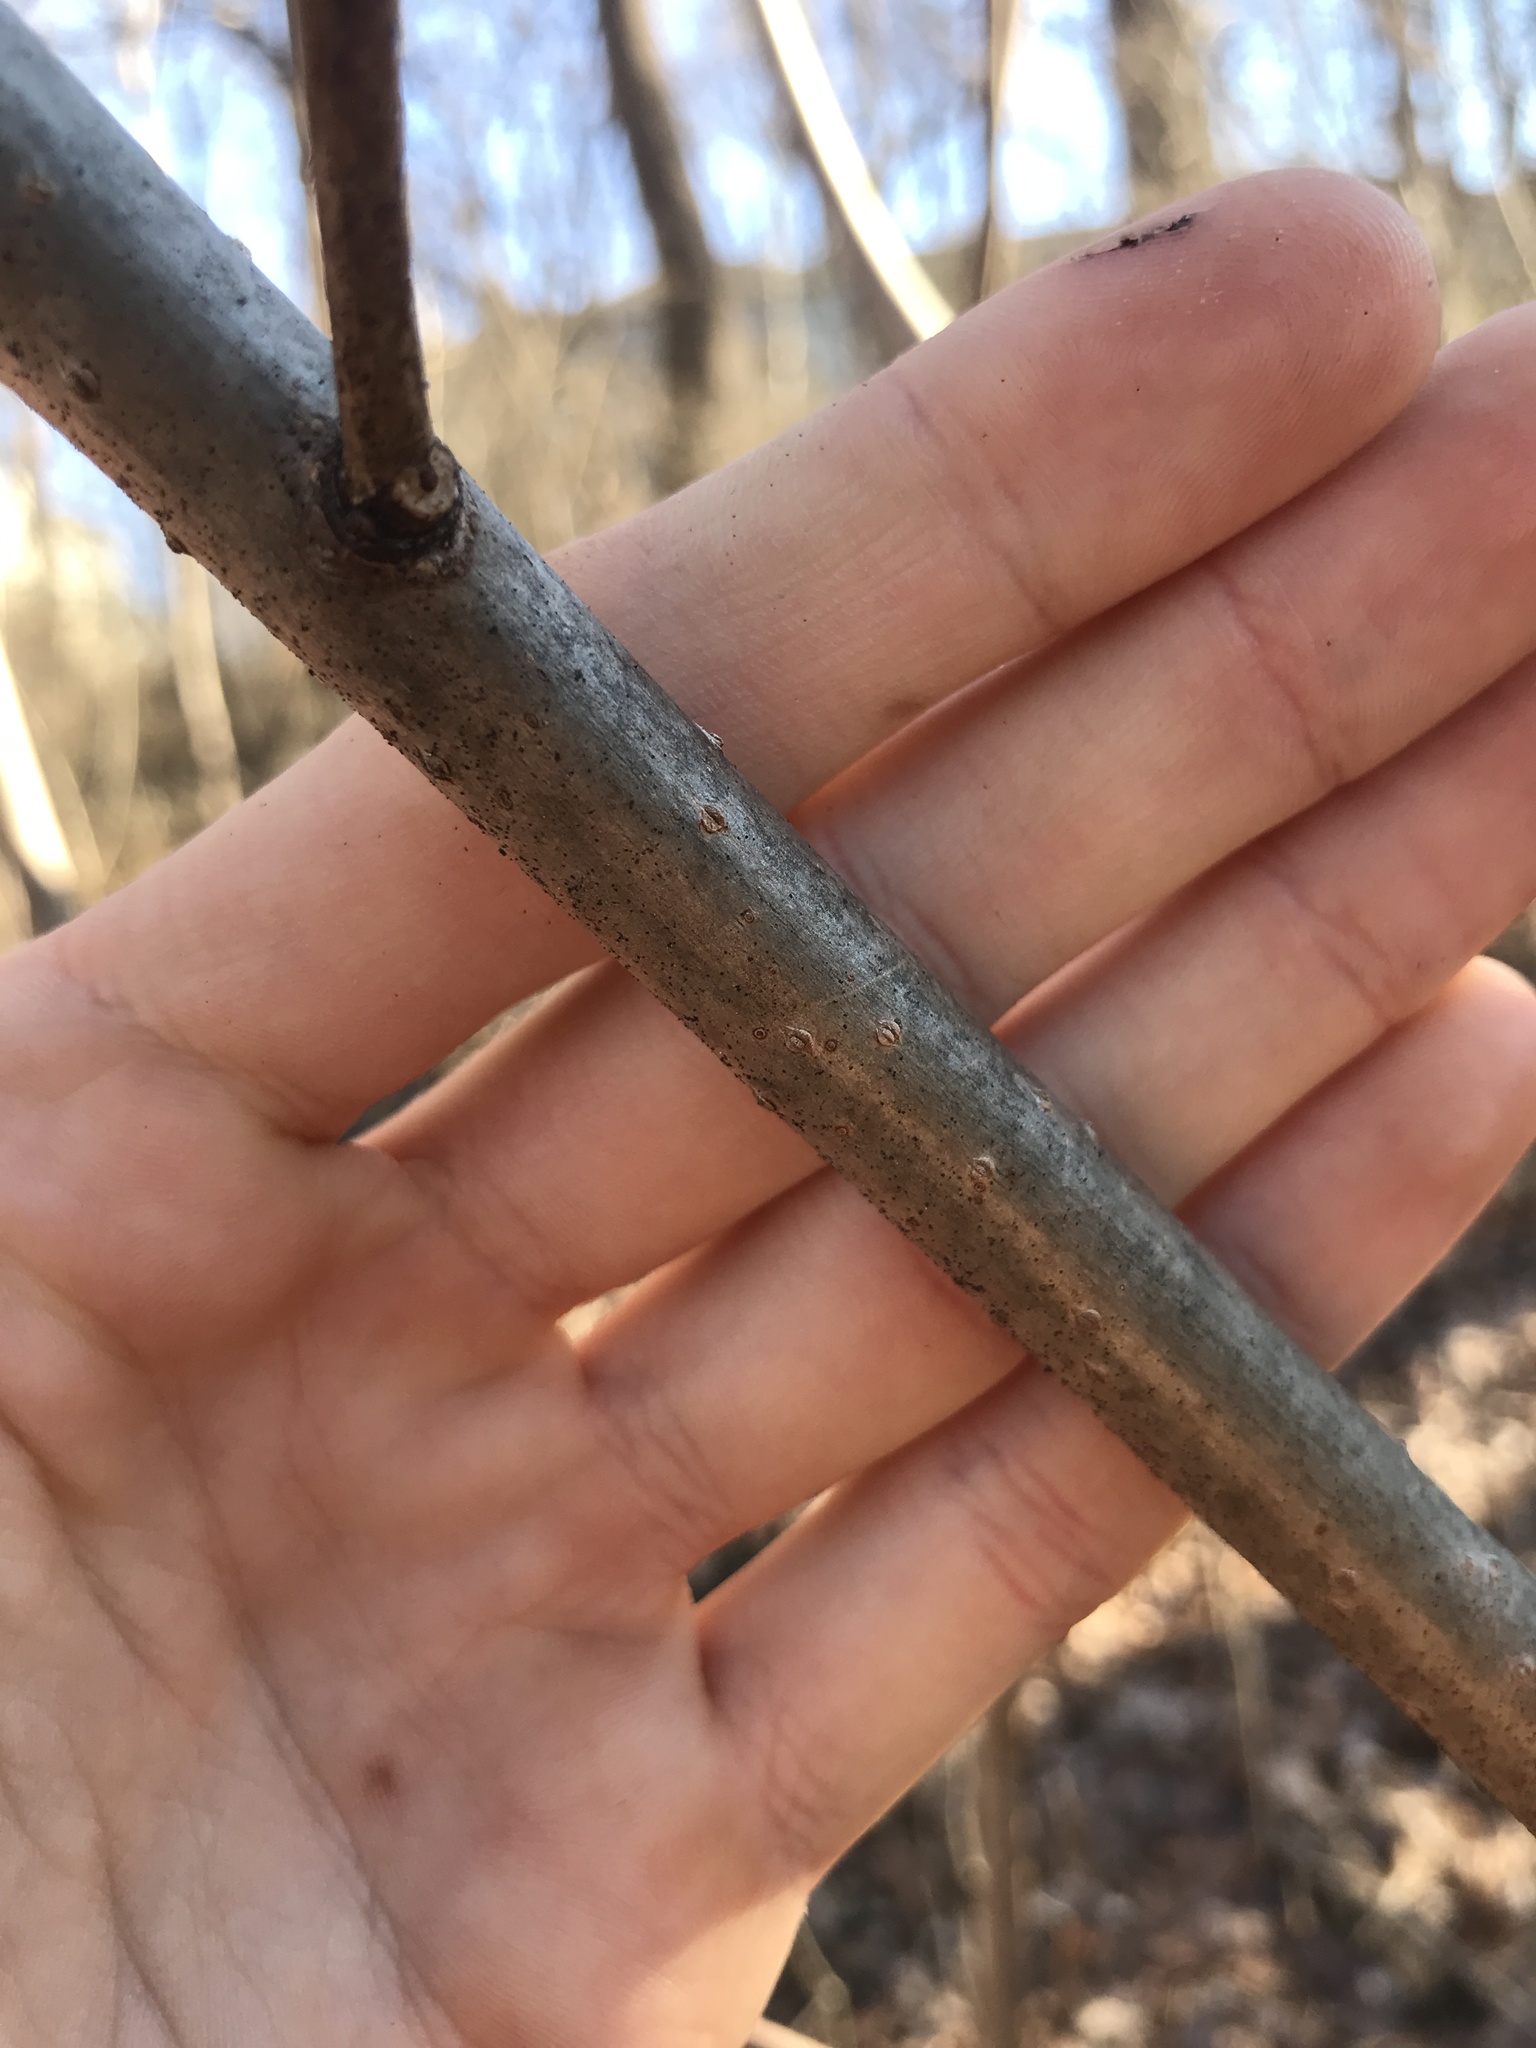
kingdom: Plantae
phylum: Tracheophyta
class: Magnoliopsida
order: Sapindales
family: Rutaceae
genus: Phellodendron
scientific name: Phellodendron amurense
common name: Amur corktree
